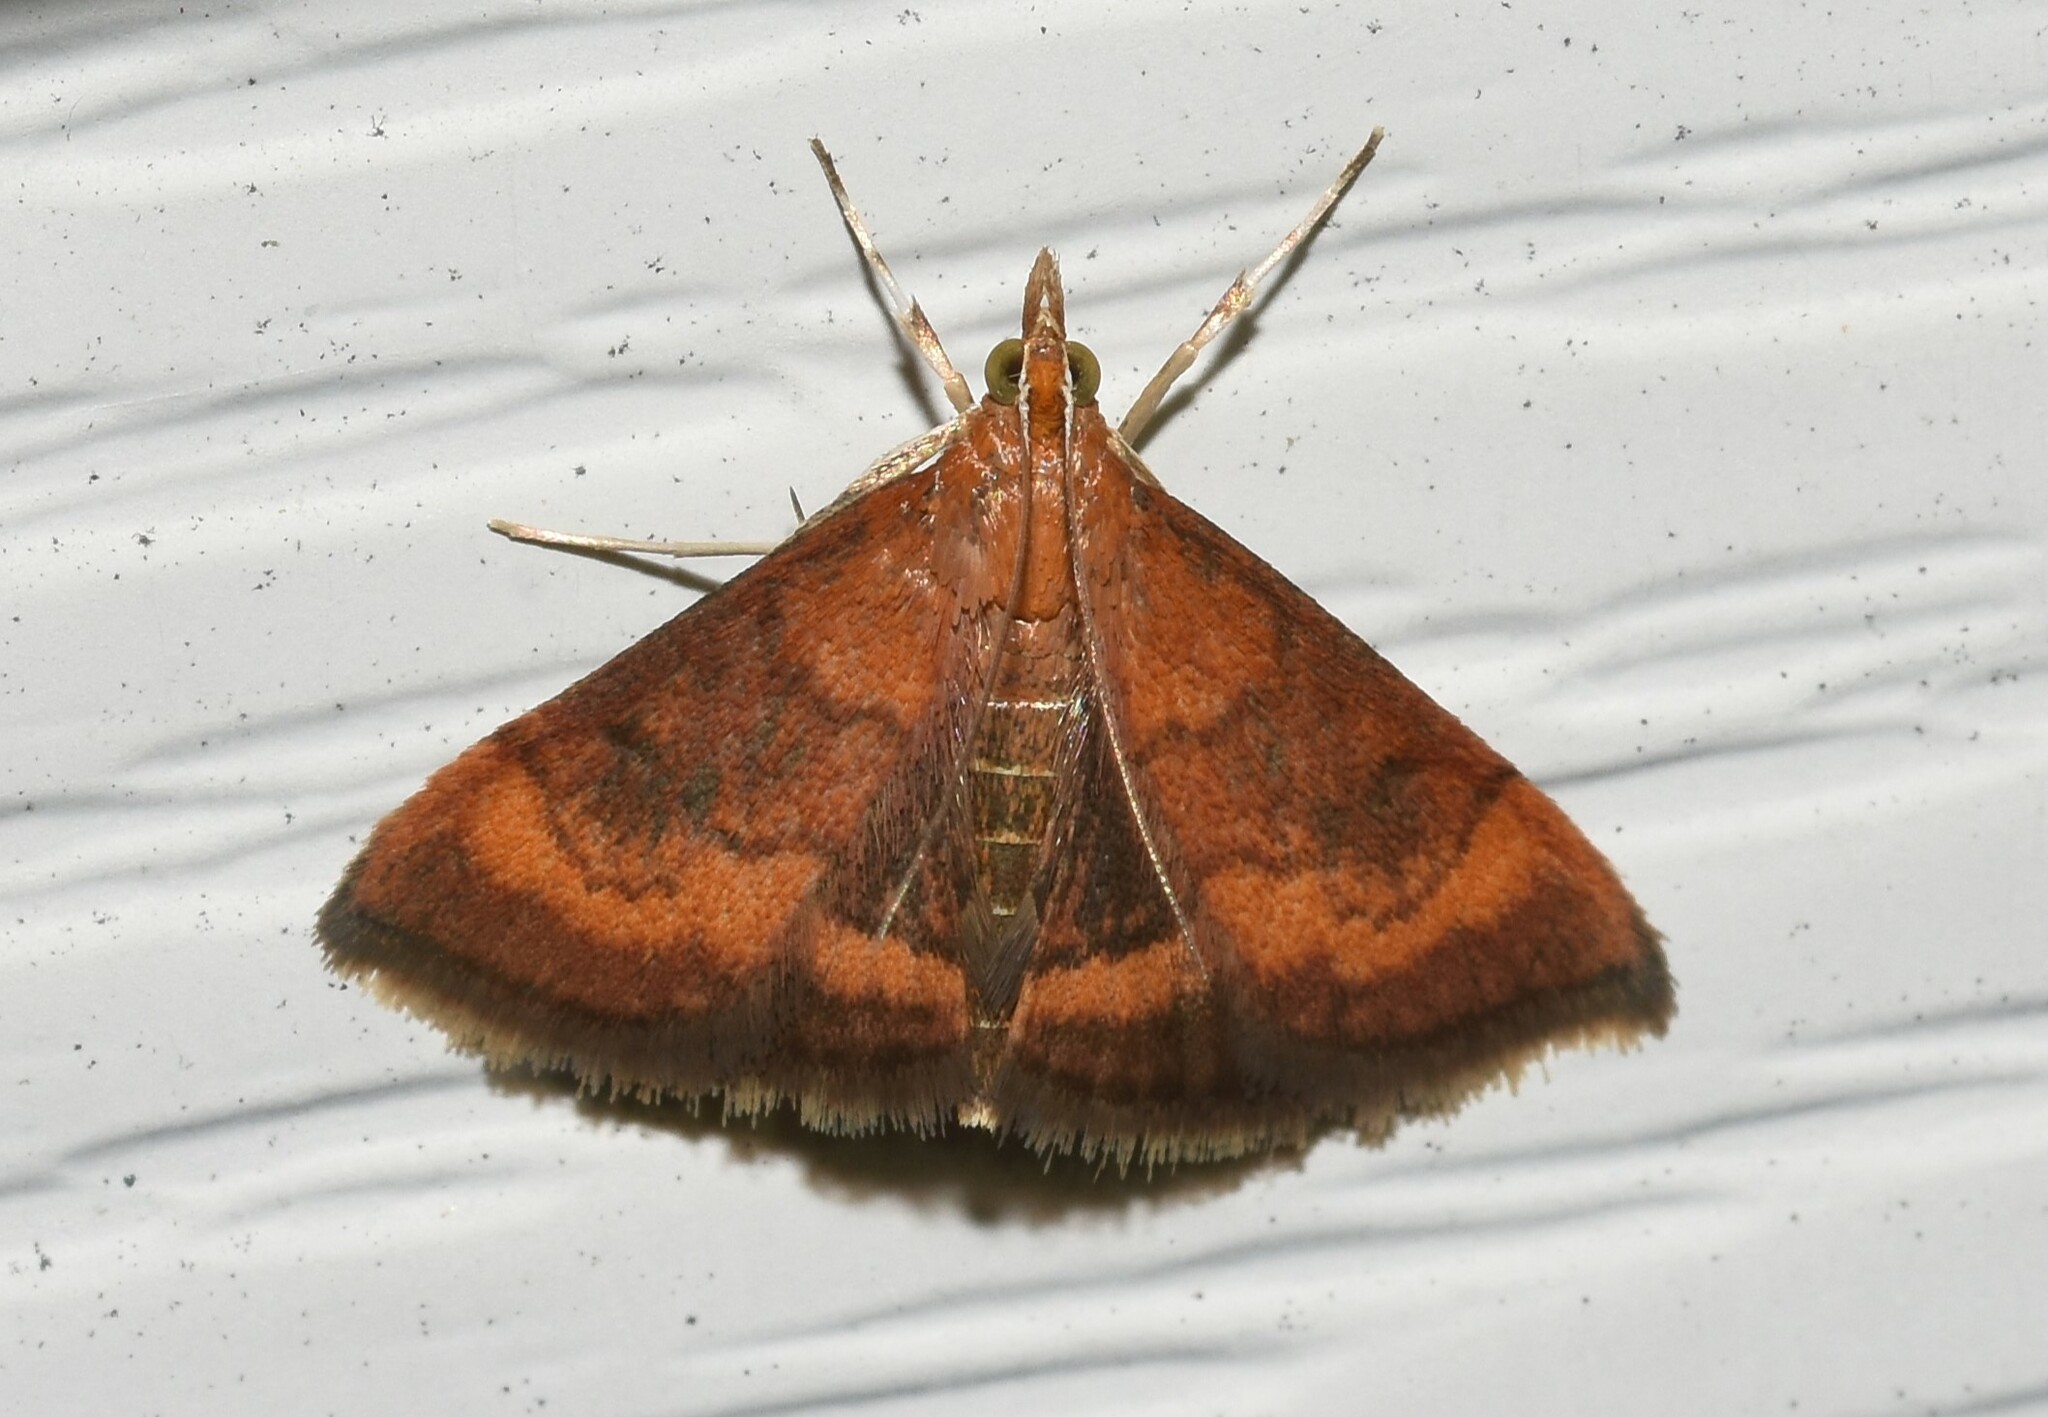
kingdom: Animalia
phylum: Arthropoda
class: Insecta
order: Lepidoptera
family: Crambidae
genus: Pyrausta
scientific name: Pyrausta rubricalis
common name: Variable reddish pyrausta
